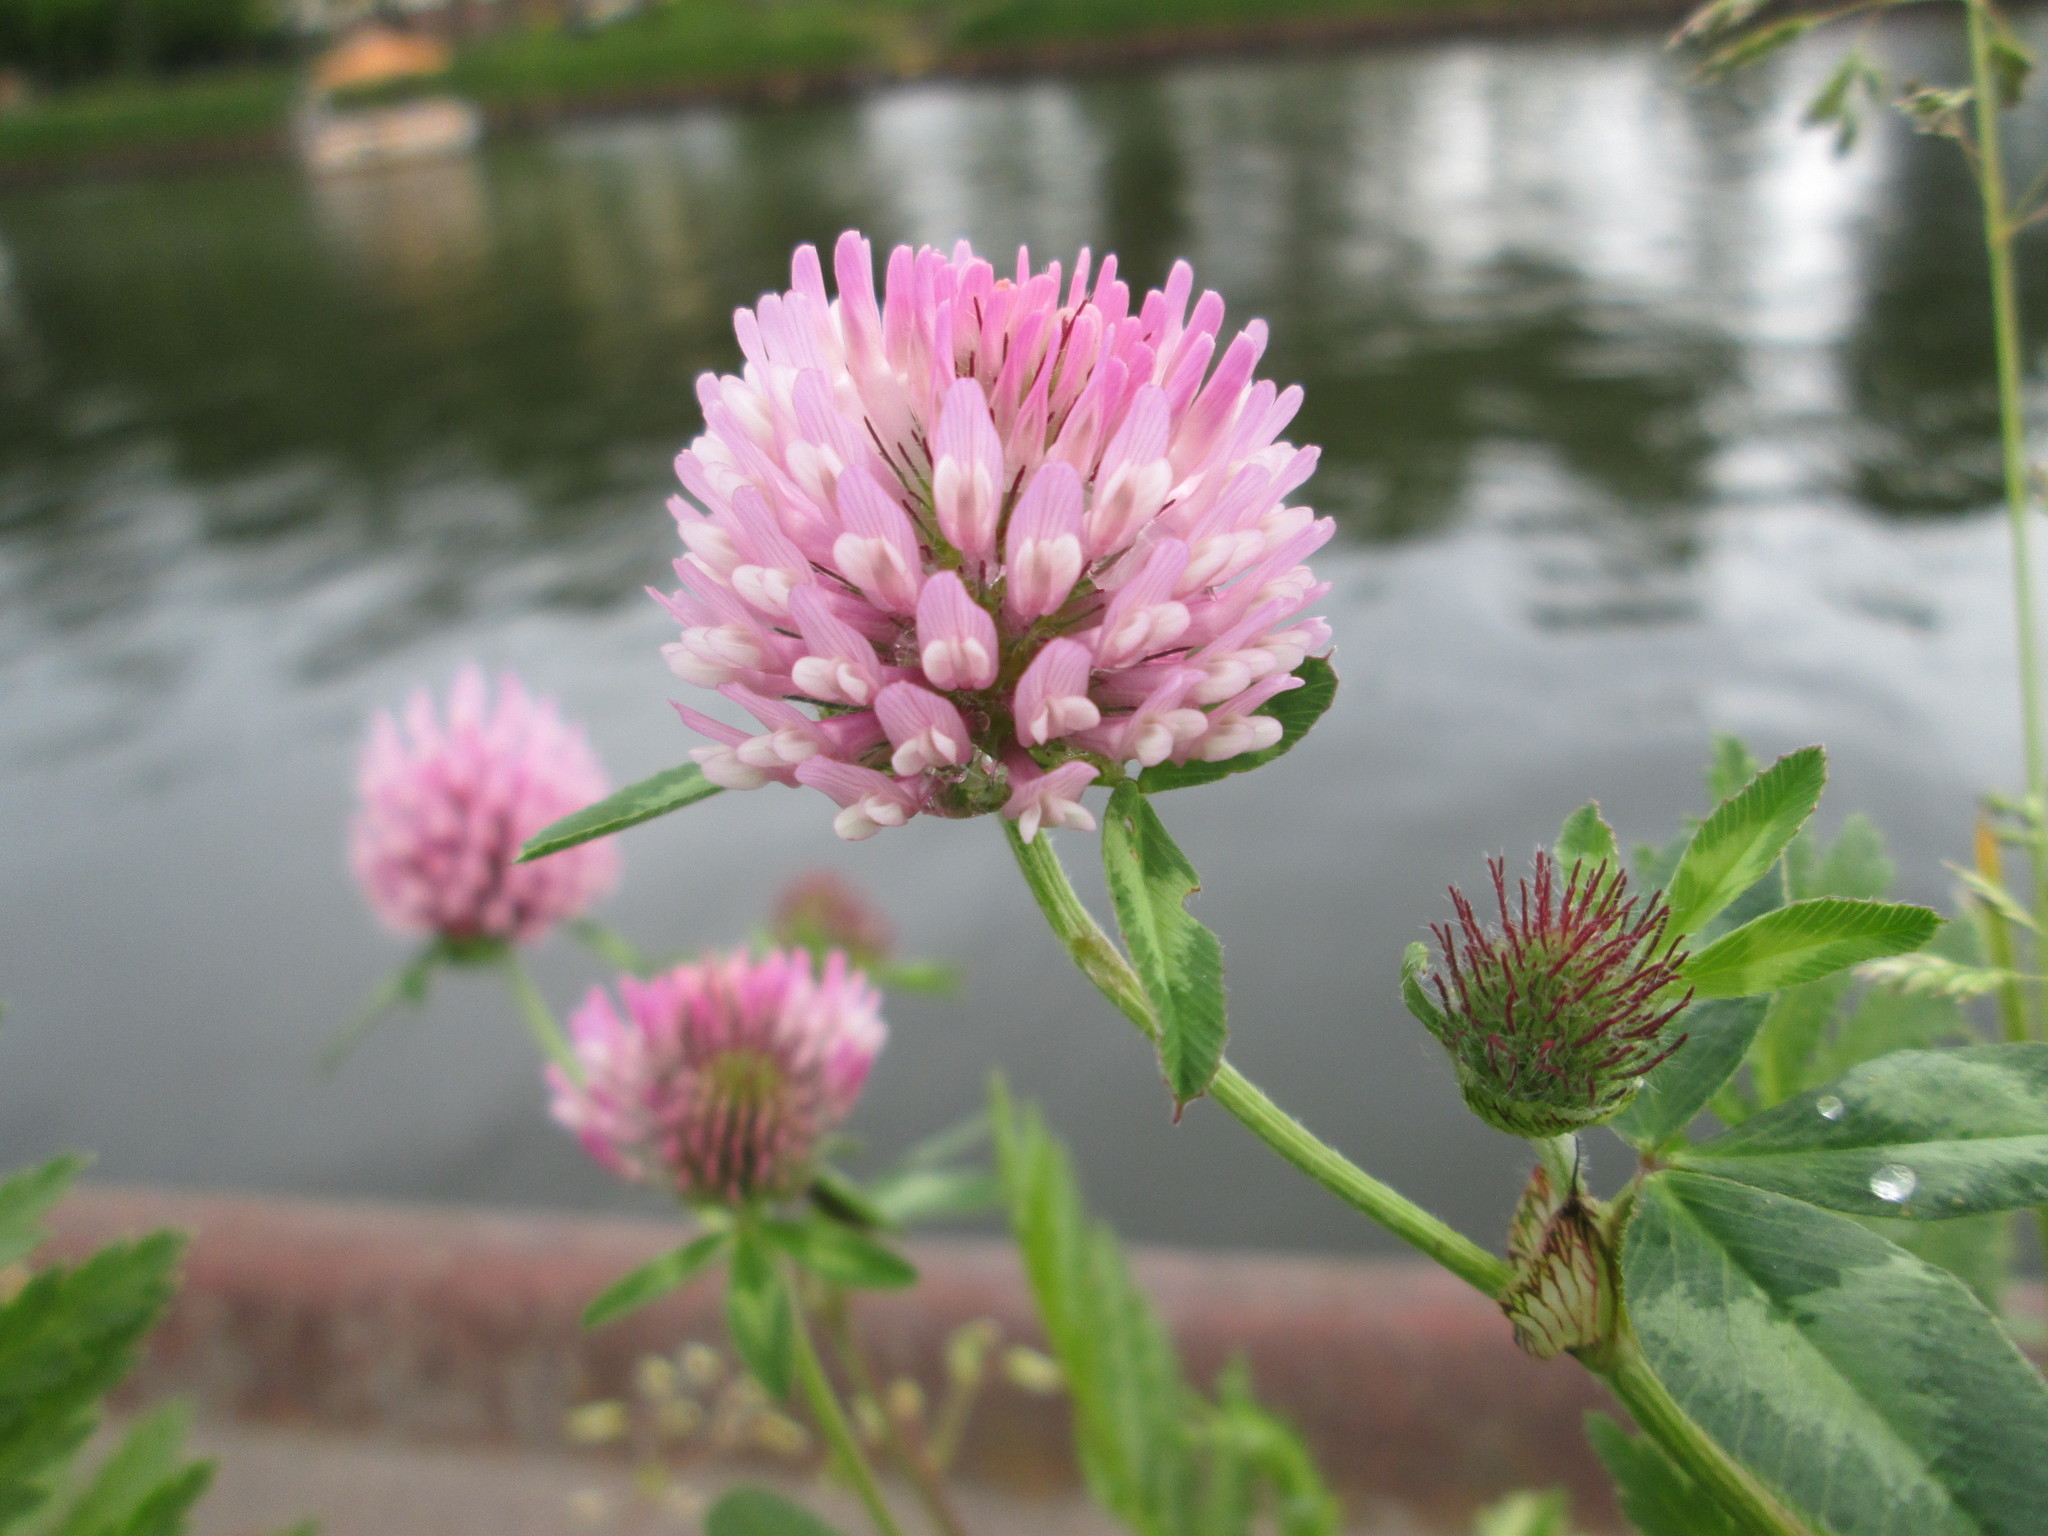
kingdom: Plantae
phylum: Tracheophyta
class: Magnoliopsida
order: Fabales
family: Fabaceae
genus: Trifolium
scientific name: Trifolium pratense
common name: Red clover
